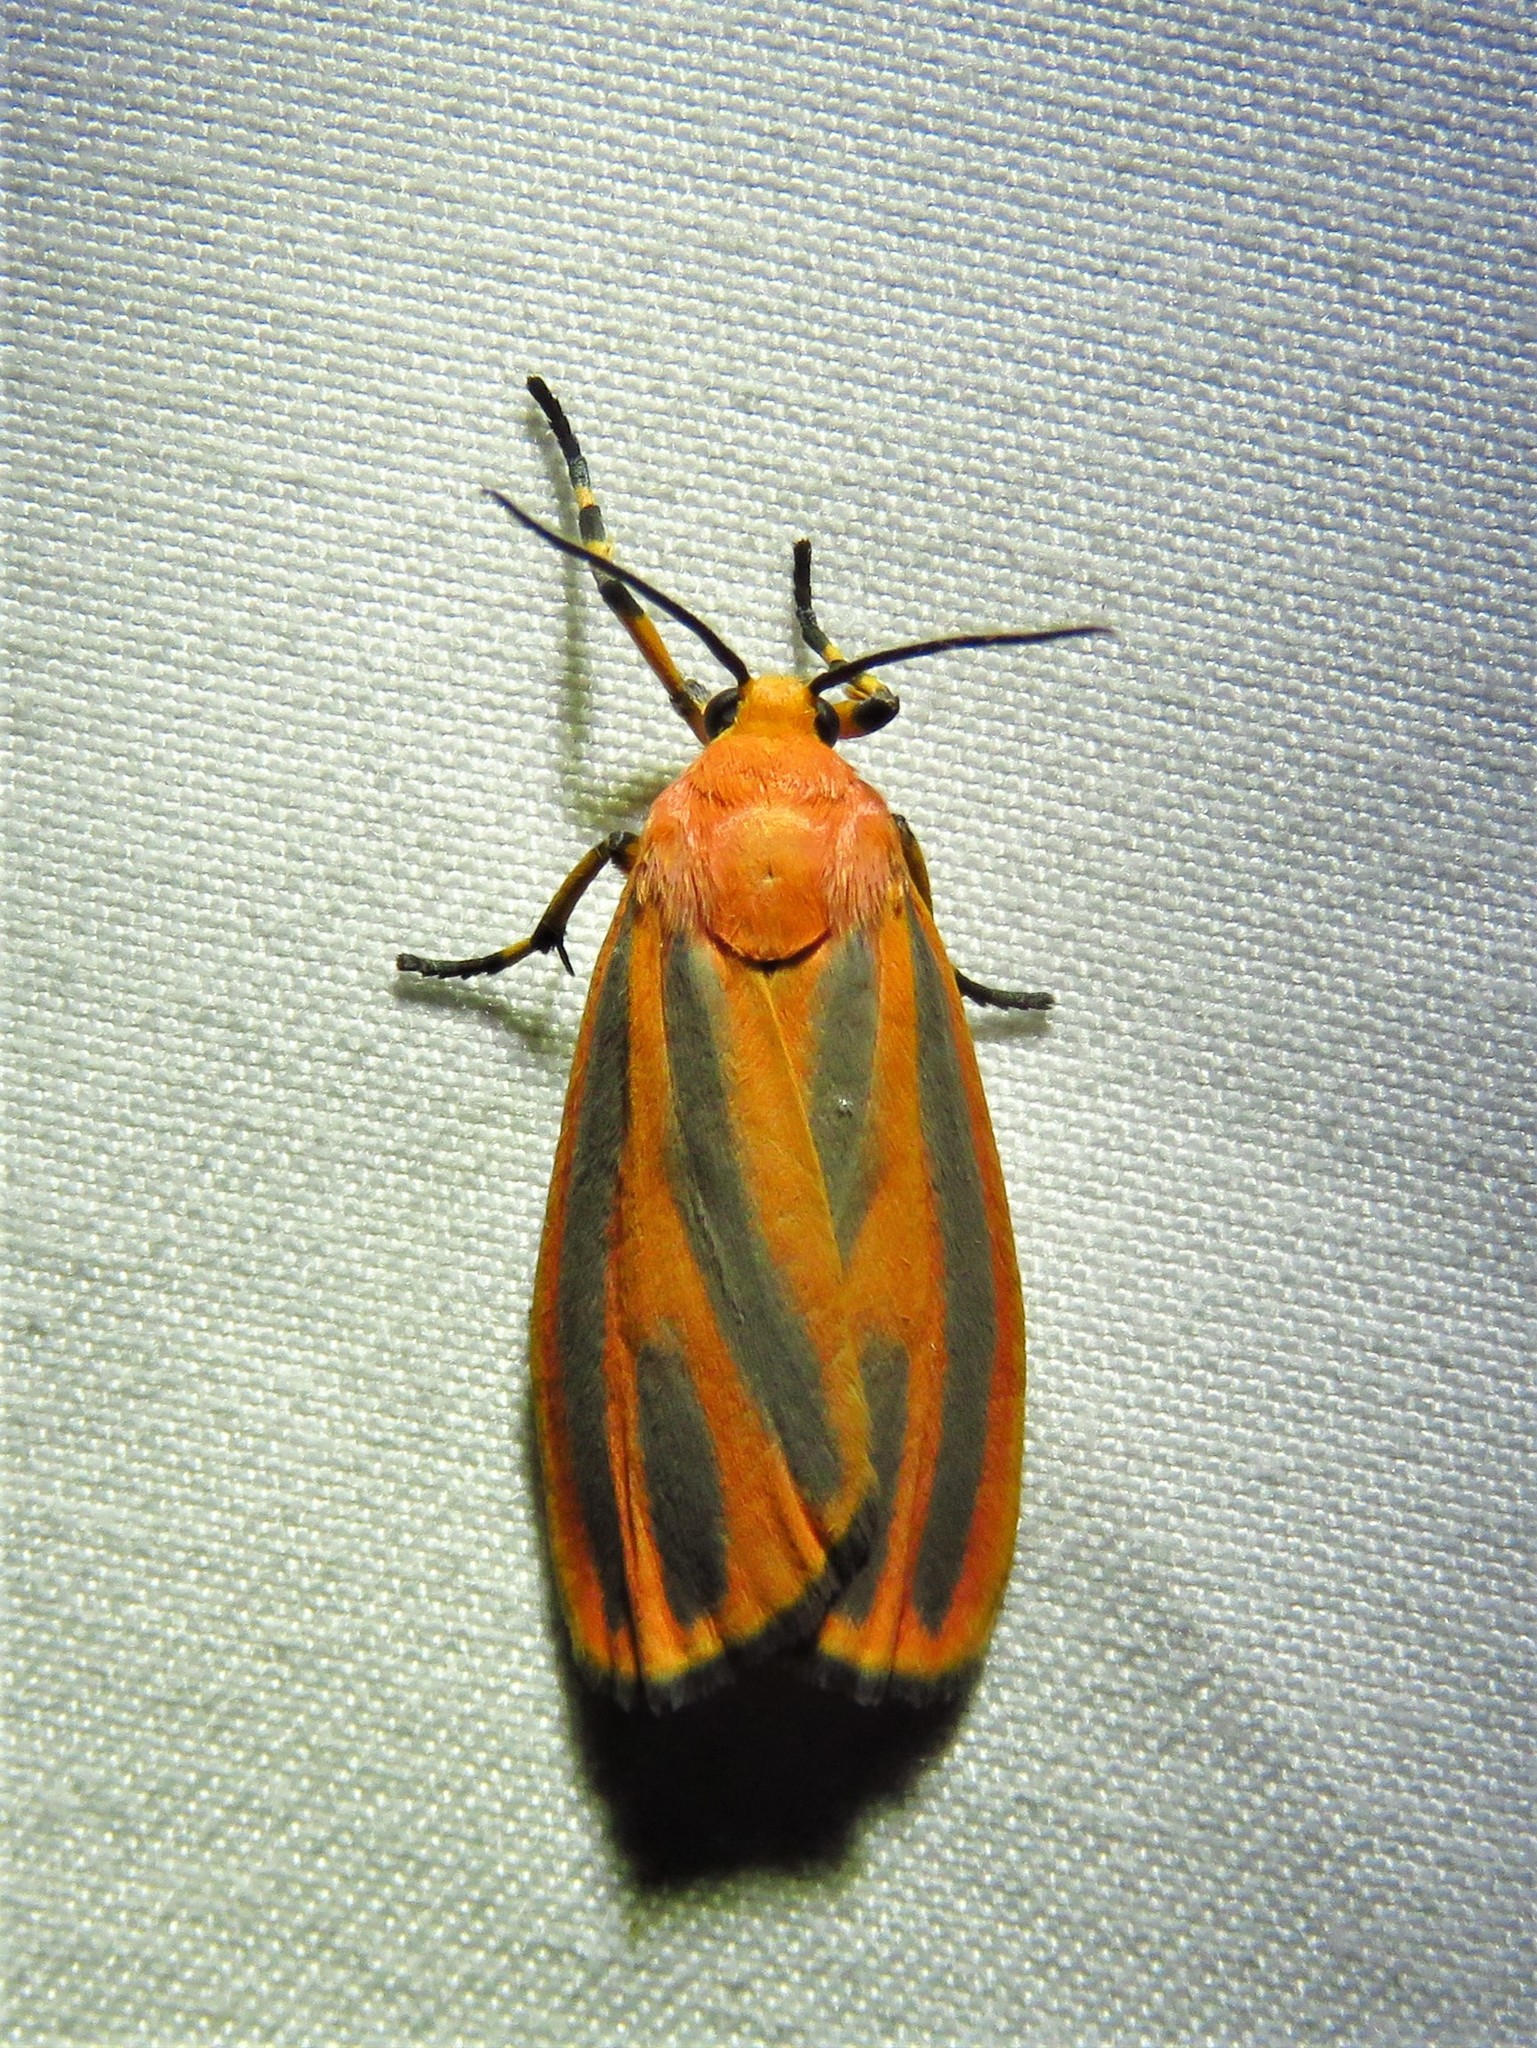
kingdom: Animalia
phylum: Arthropoda
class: Insecta
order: Lepidoptera
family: Erebidae
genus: Hypoprepia
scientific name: Hypoprepia
